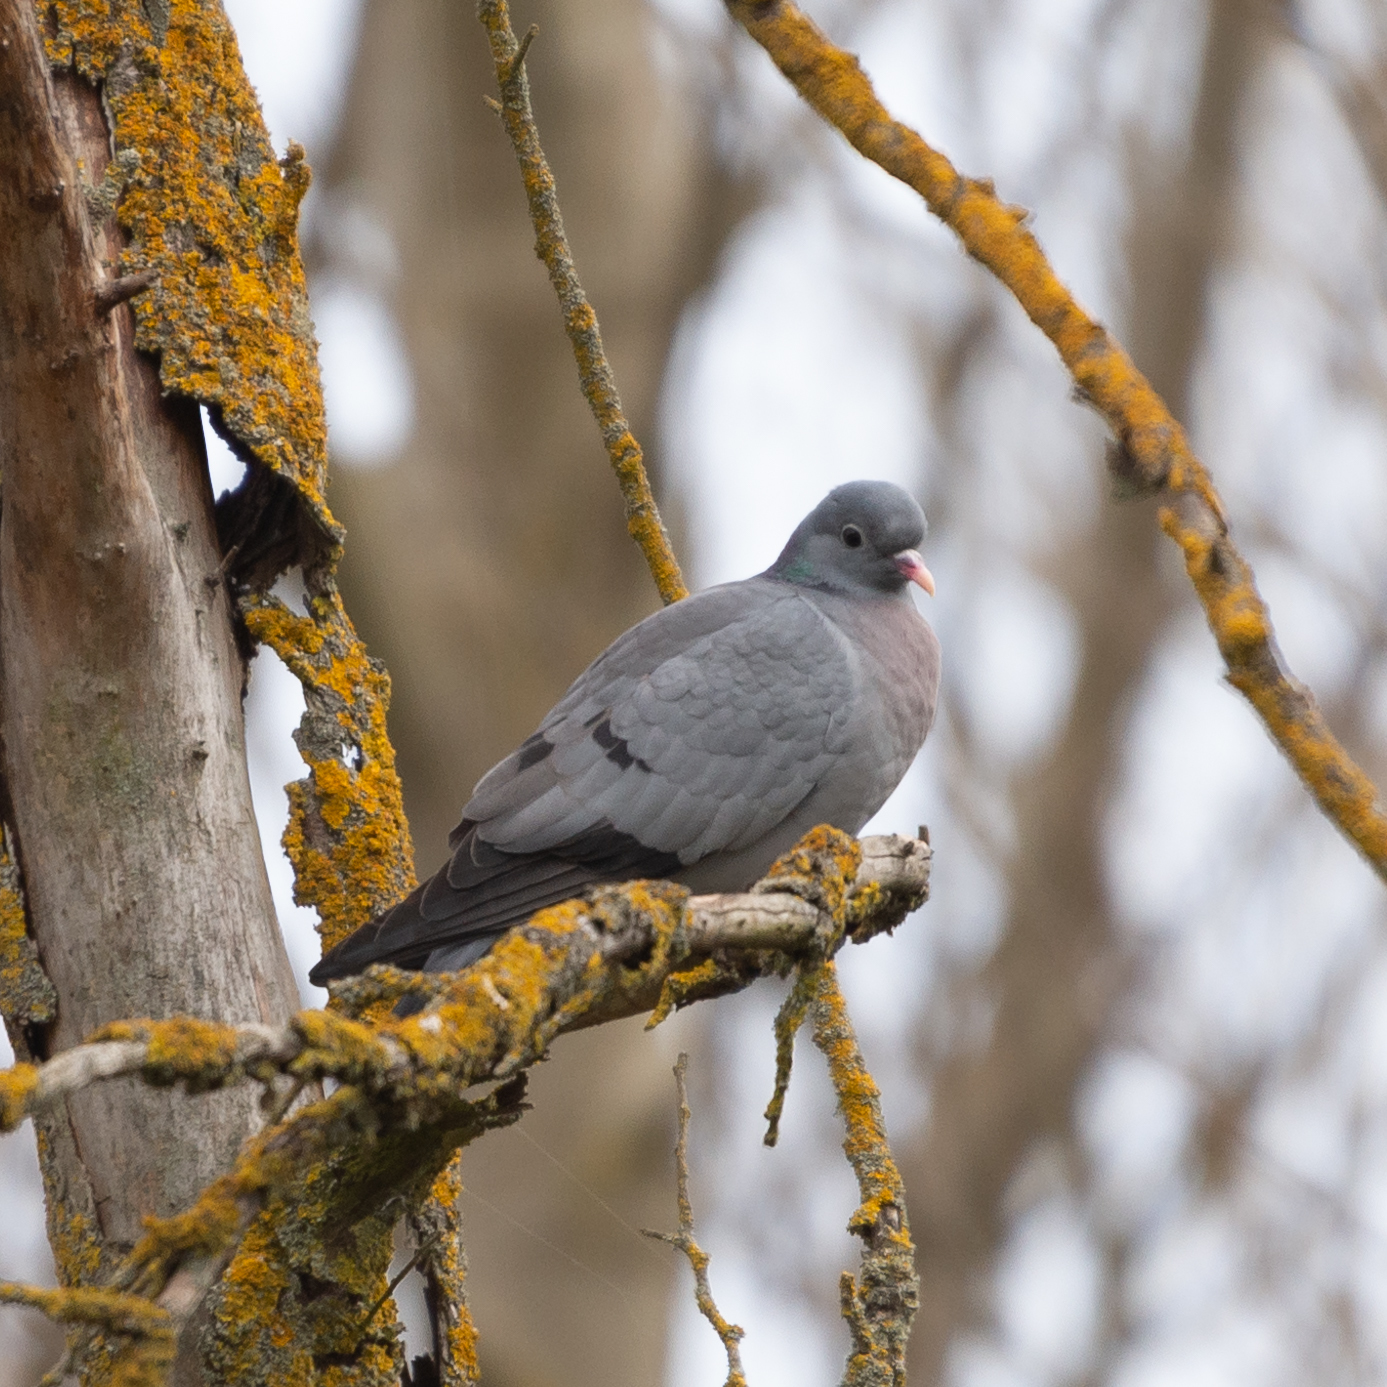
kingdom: Animalia
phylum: Chordata
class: Aves
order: Columbiformes
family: Columbidae
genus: Columba
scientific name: Columba oenas
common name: Stock dove
